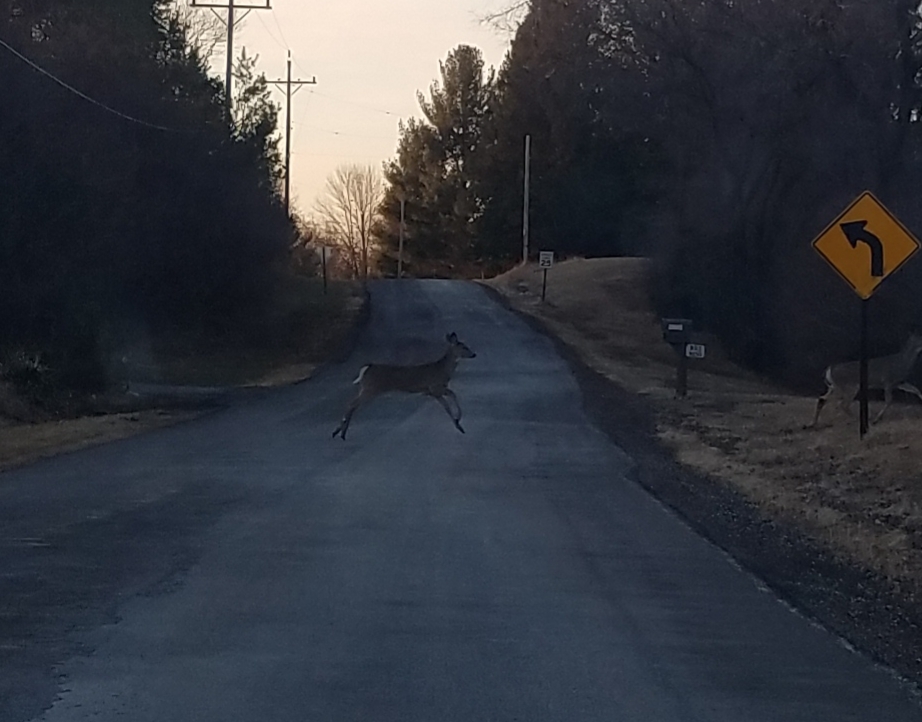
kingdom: Animalia
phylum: Chordata
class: Mammalia
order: Artiodactyla
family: Cervidae
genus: Odocoileus
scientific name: Odocoileus virginianus
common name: White-tailed deer
